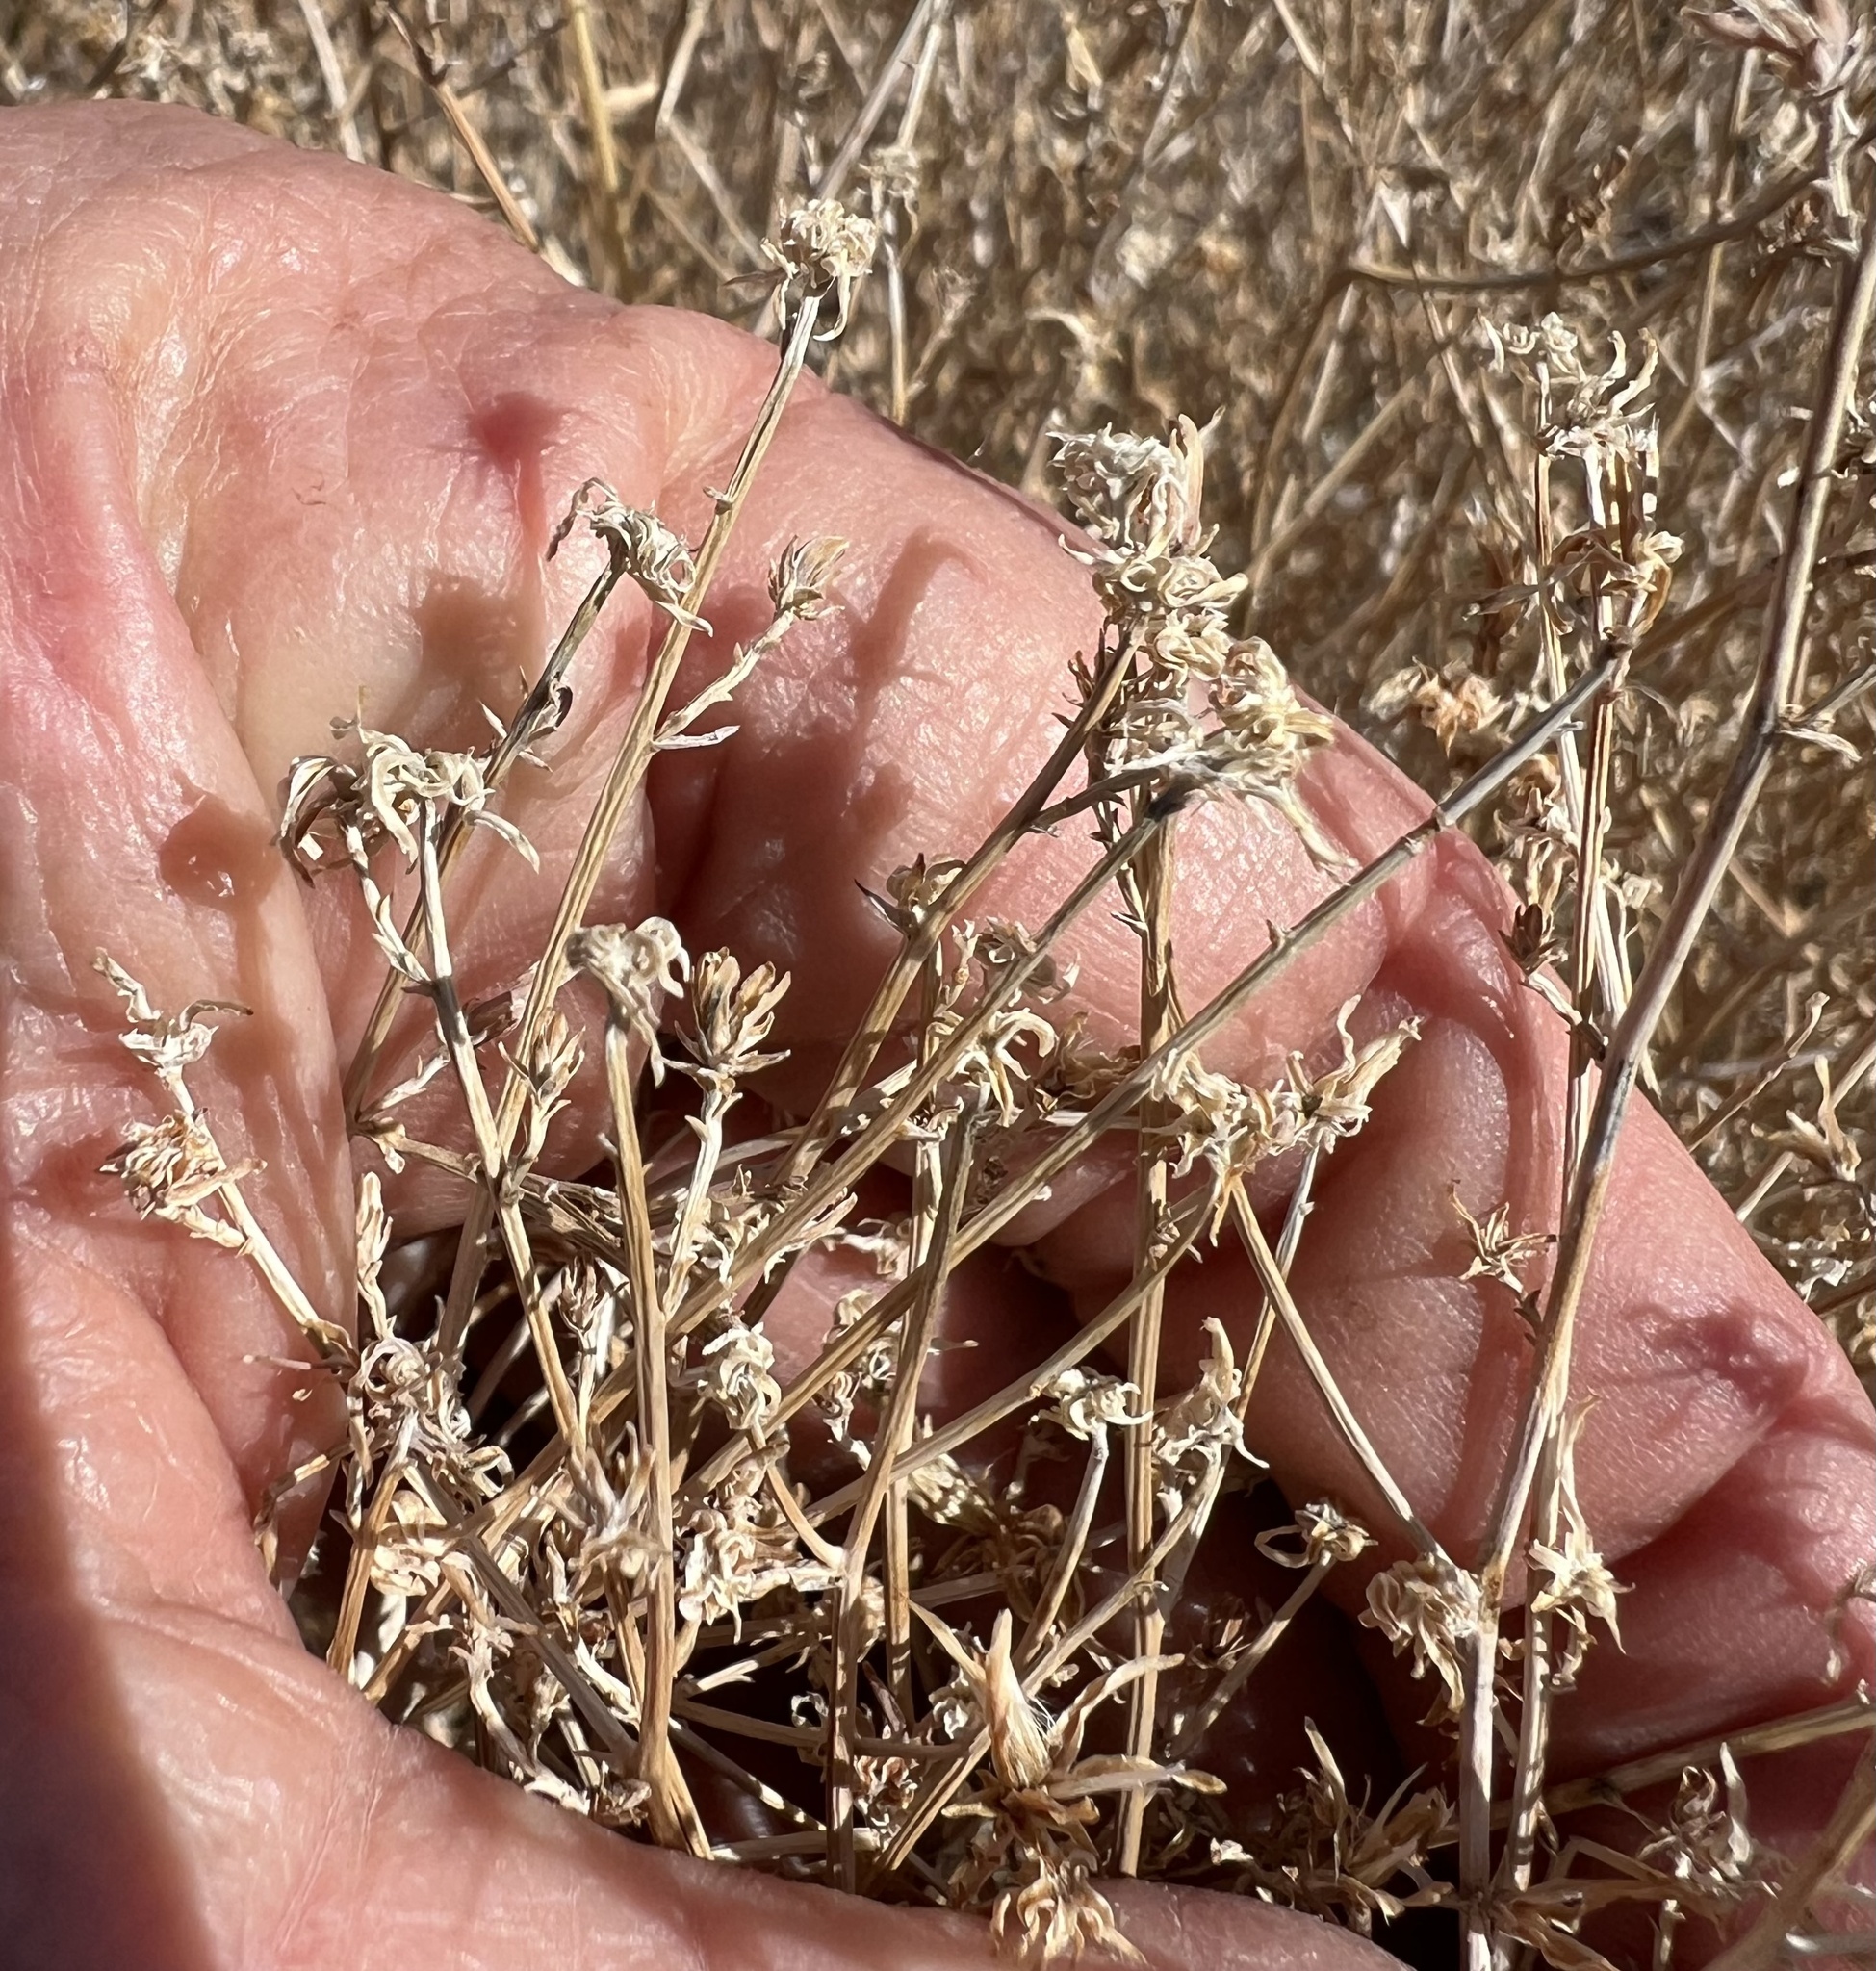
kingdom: Plantae
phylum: Tracheophyta
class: Magnoliopsida
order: Asterales
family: Asteraceae
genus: Stephanomeria
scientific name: Stephanomeria pauciflora
